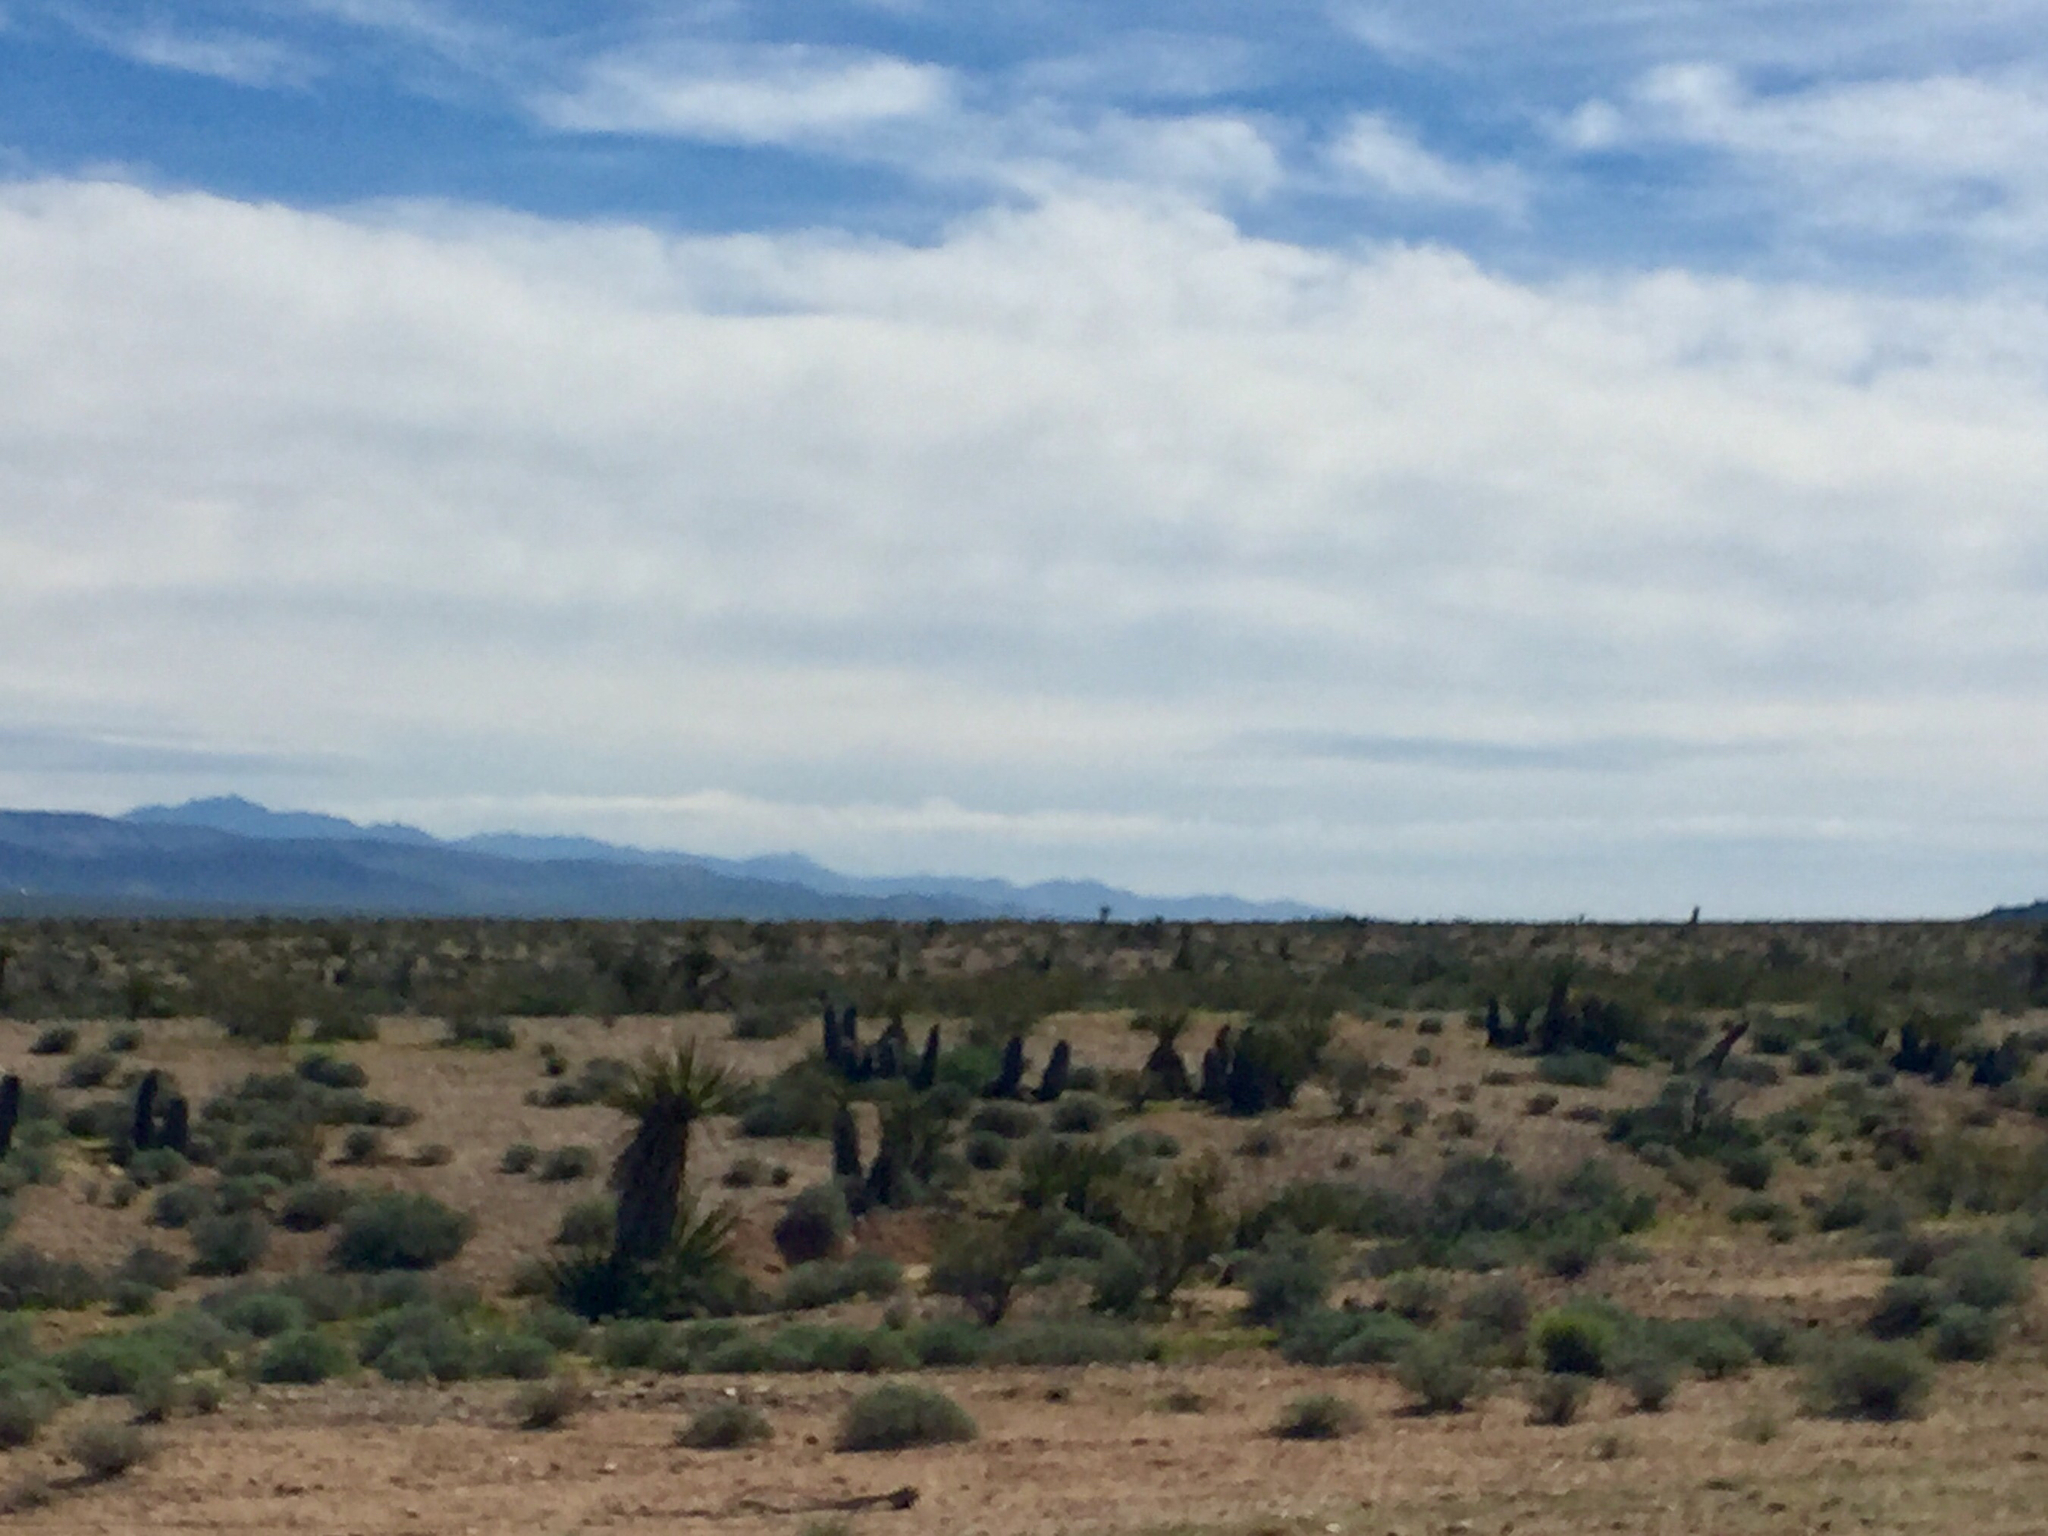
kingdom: Plantae
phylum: Tracheophyta
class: Liliopsida
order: Asparagales
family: Asparagaceae
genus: Yucca
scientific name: Yucca schidigera
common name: Mojave yucca
